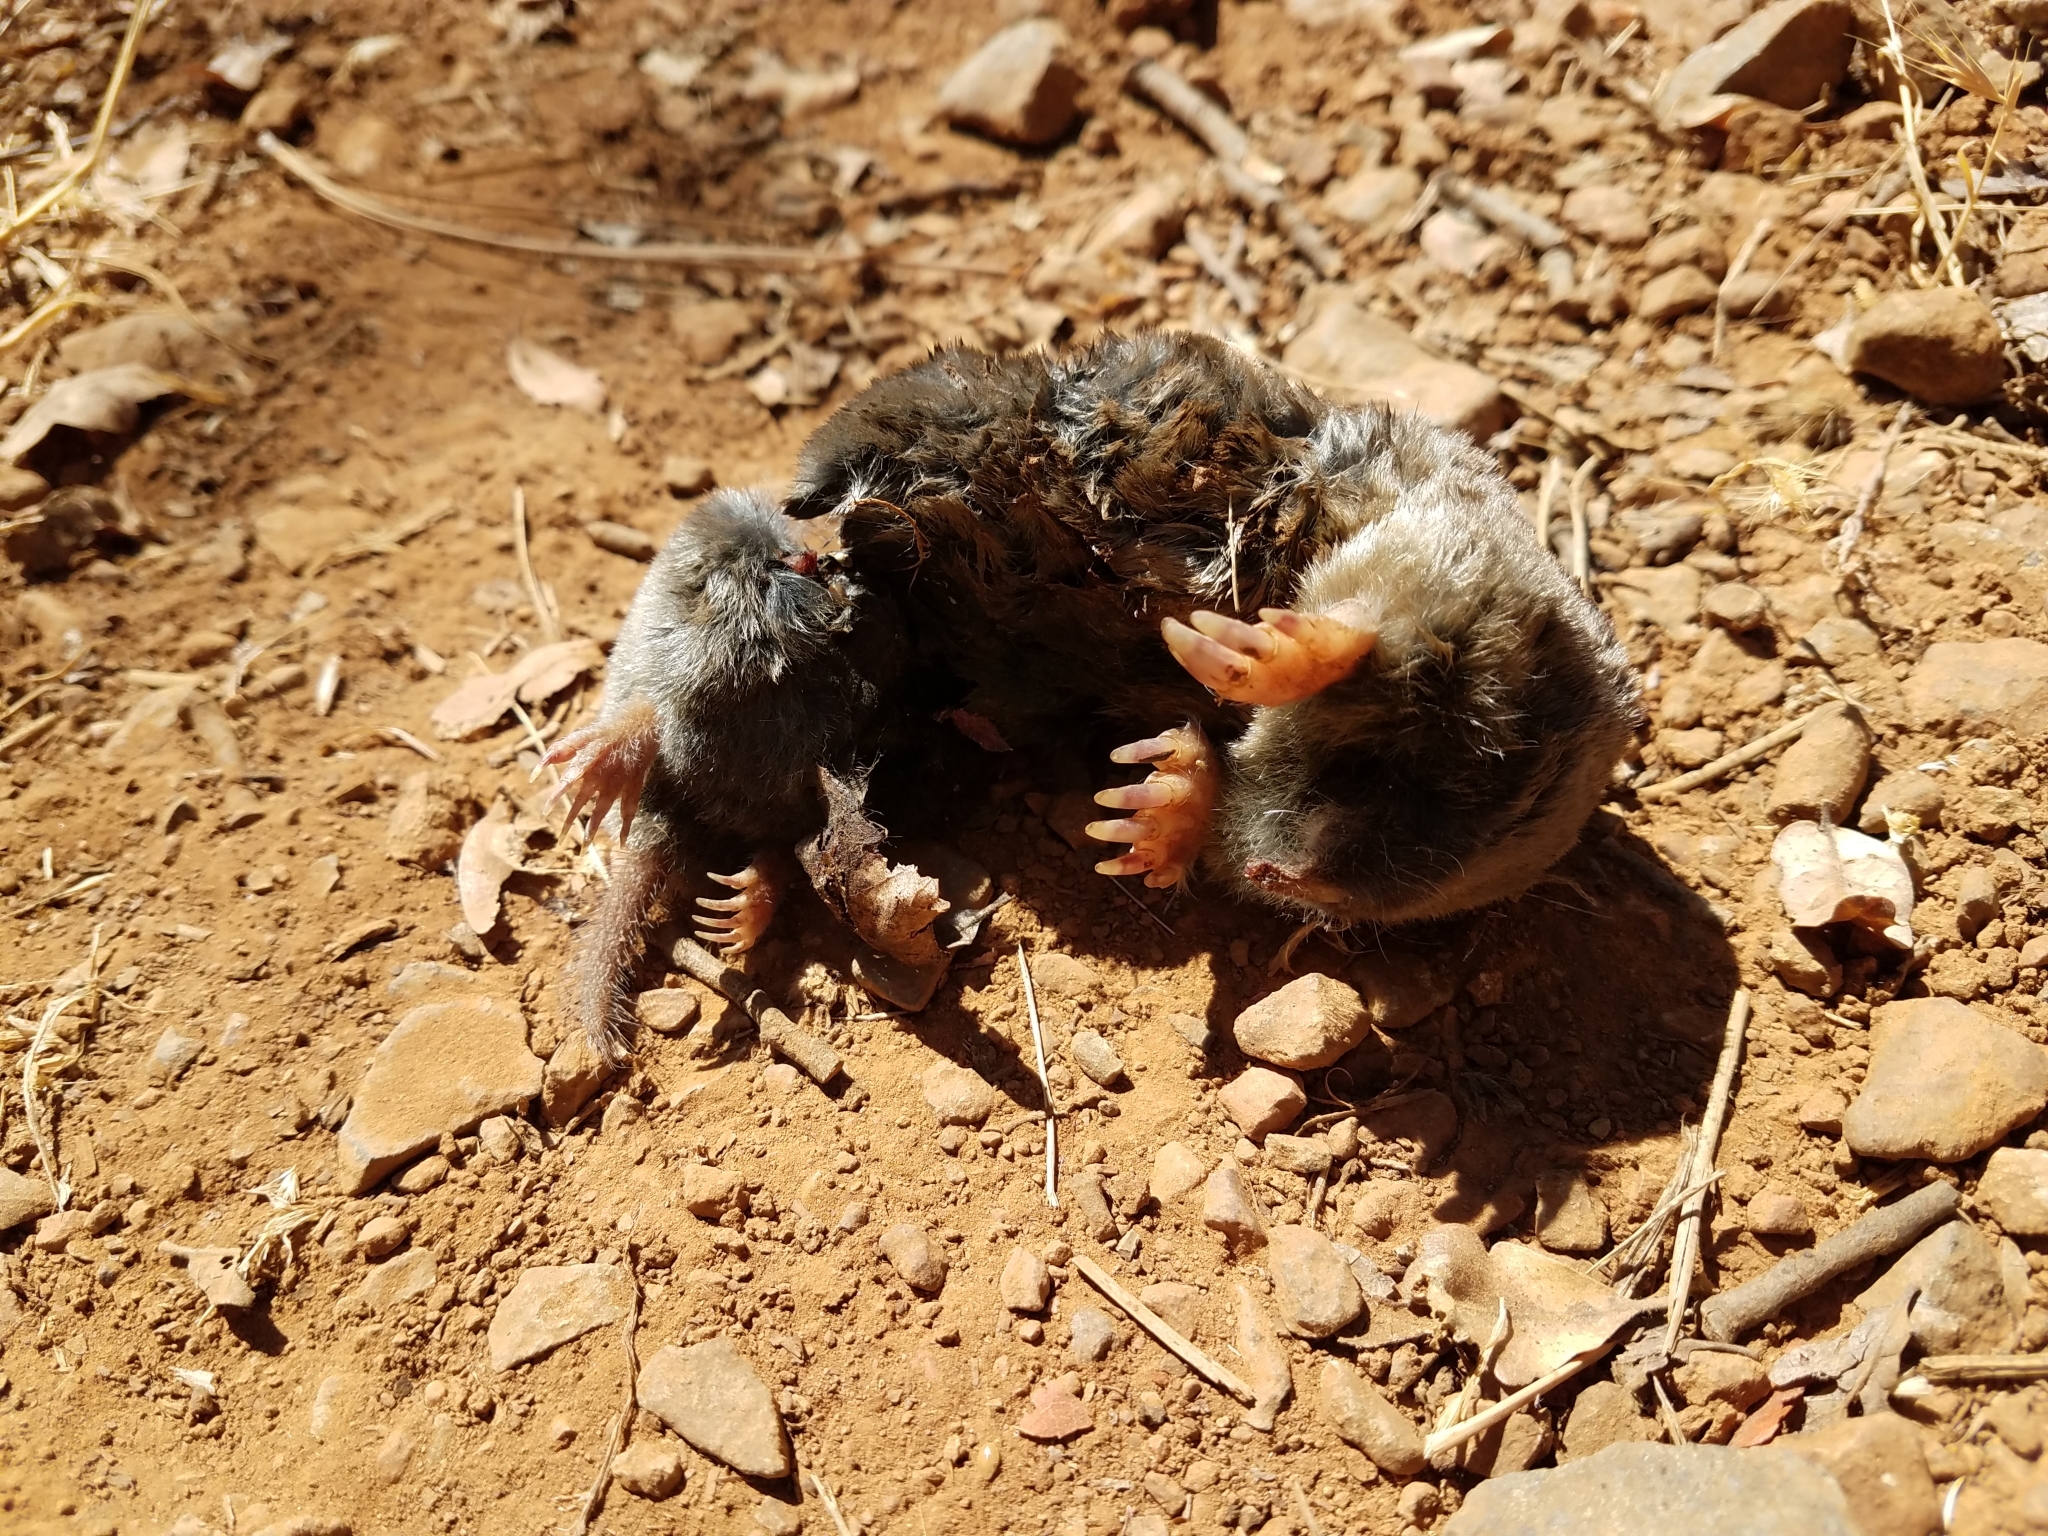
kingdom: Animalia
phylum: Chordata
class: Mammalia
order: Soricomorpha
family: Talpidae
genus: Scapanus
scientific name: Scapanus latimanus
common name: Broad-footed mole
